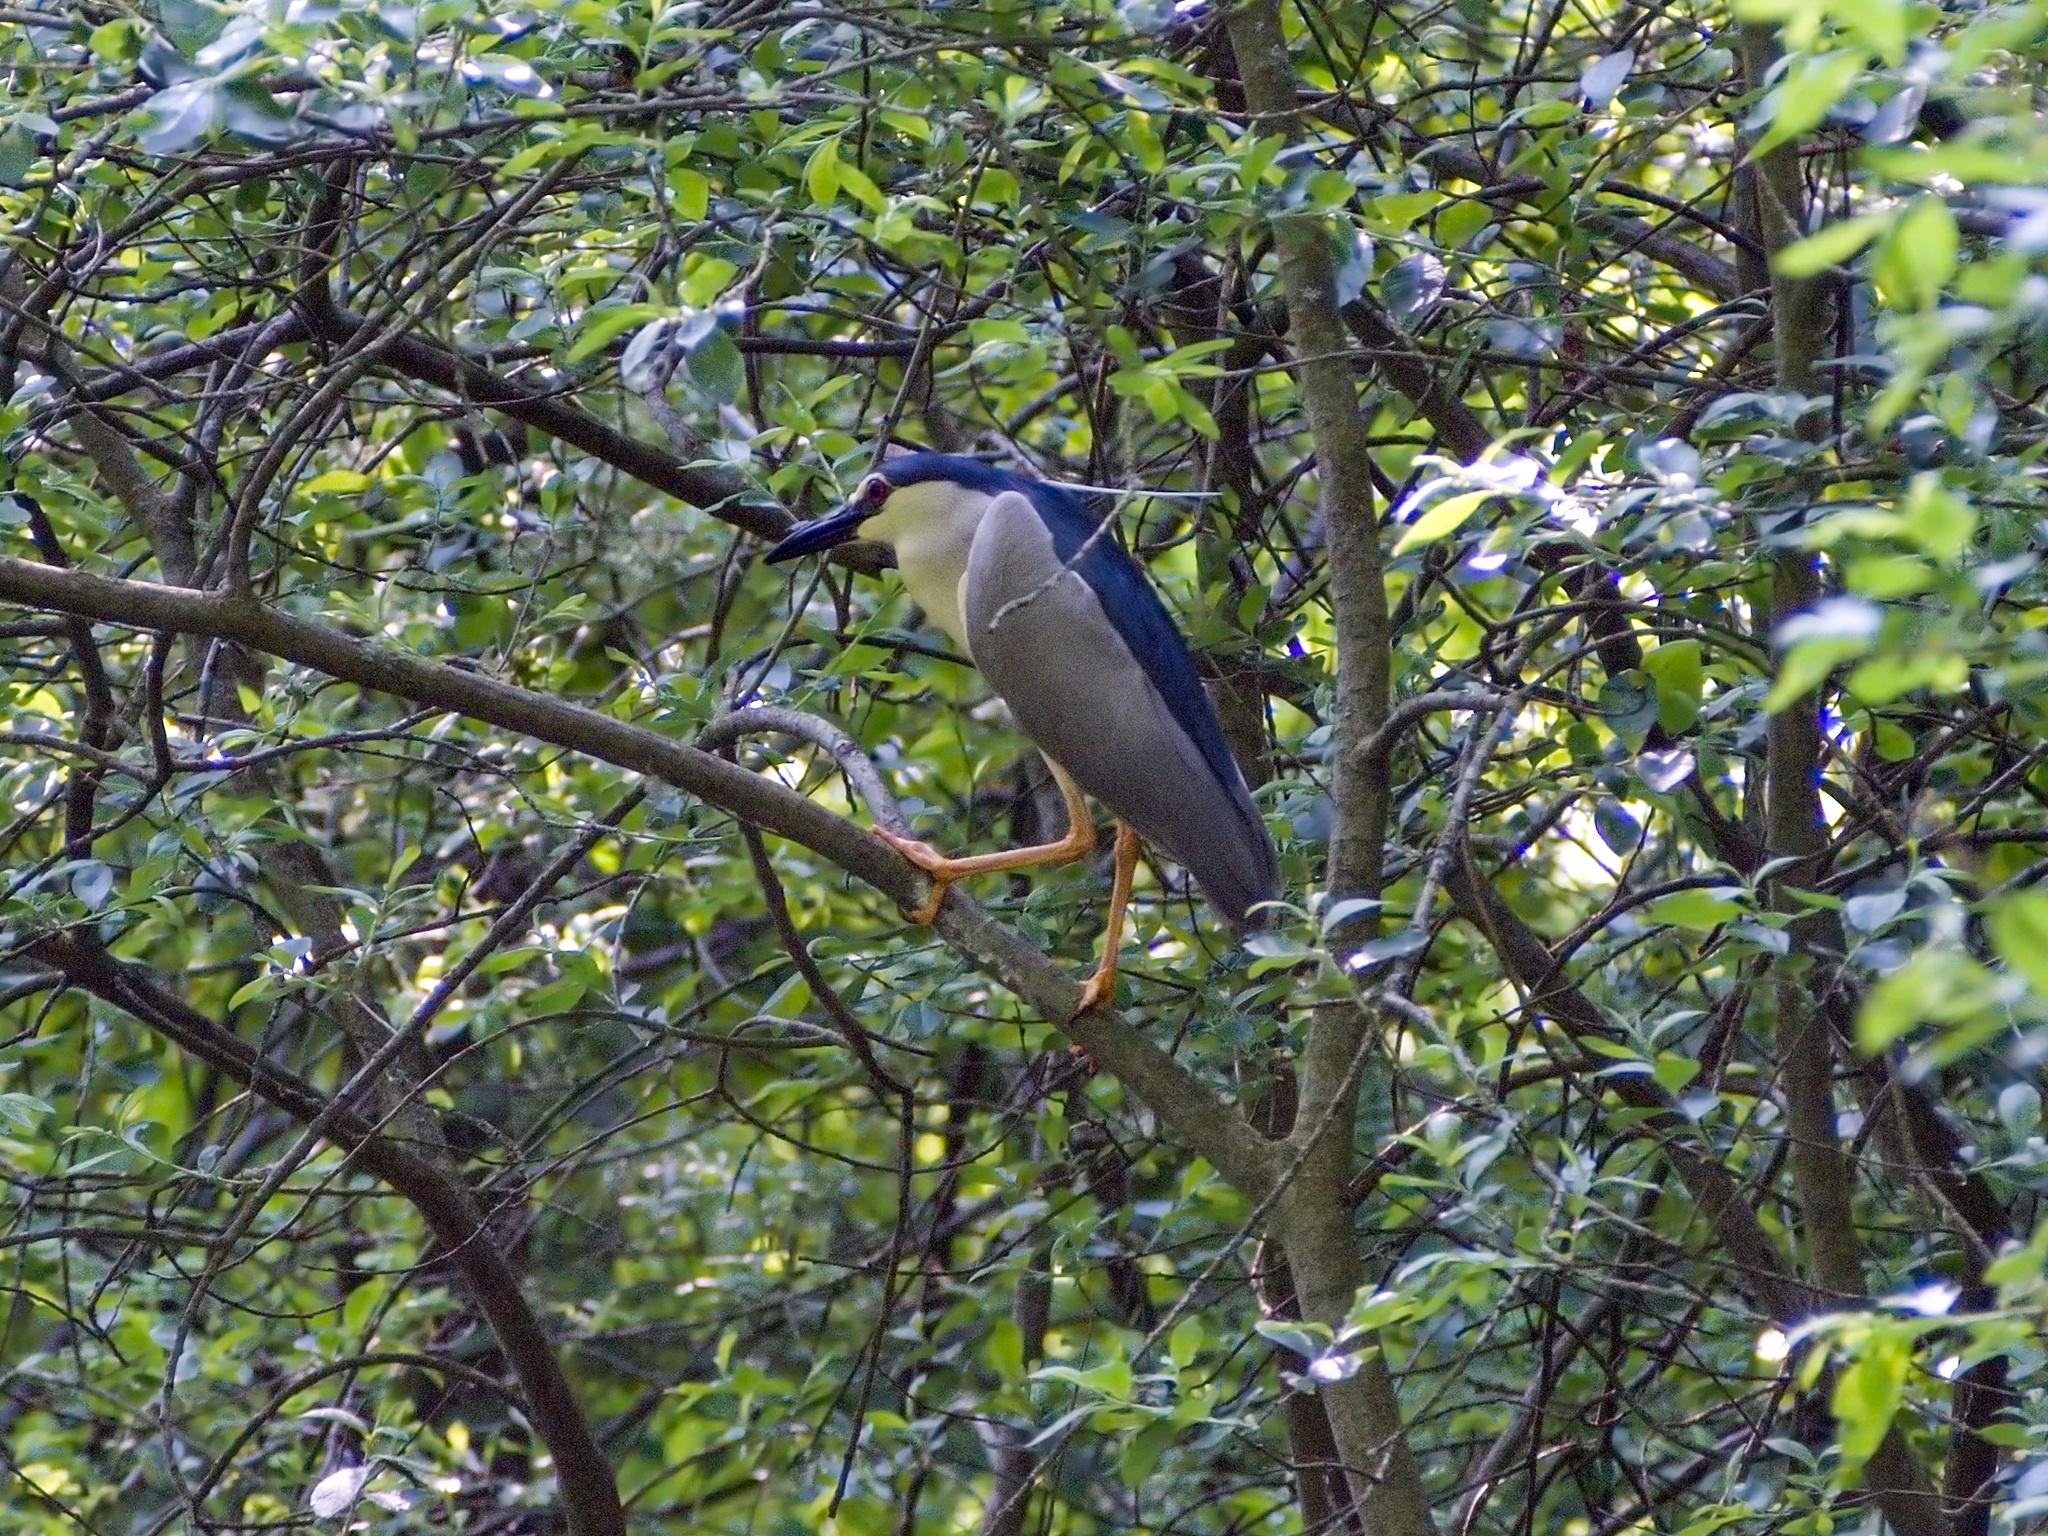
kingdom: Animalia
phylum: Chordata
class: Aves
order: Pelecaniformes
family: Ardeidae
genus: Nycticorax
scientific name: Nycticorax nycticorax
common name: Black-crowned night heron
